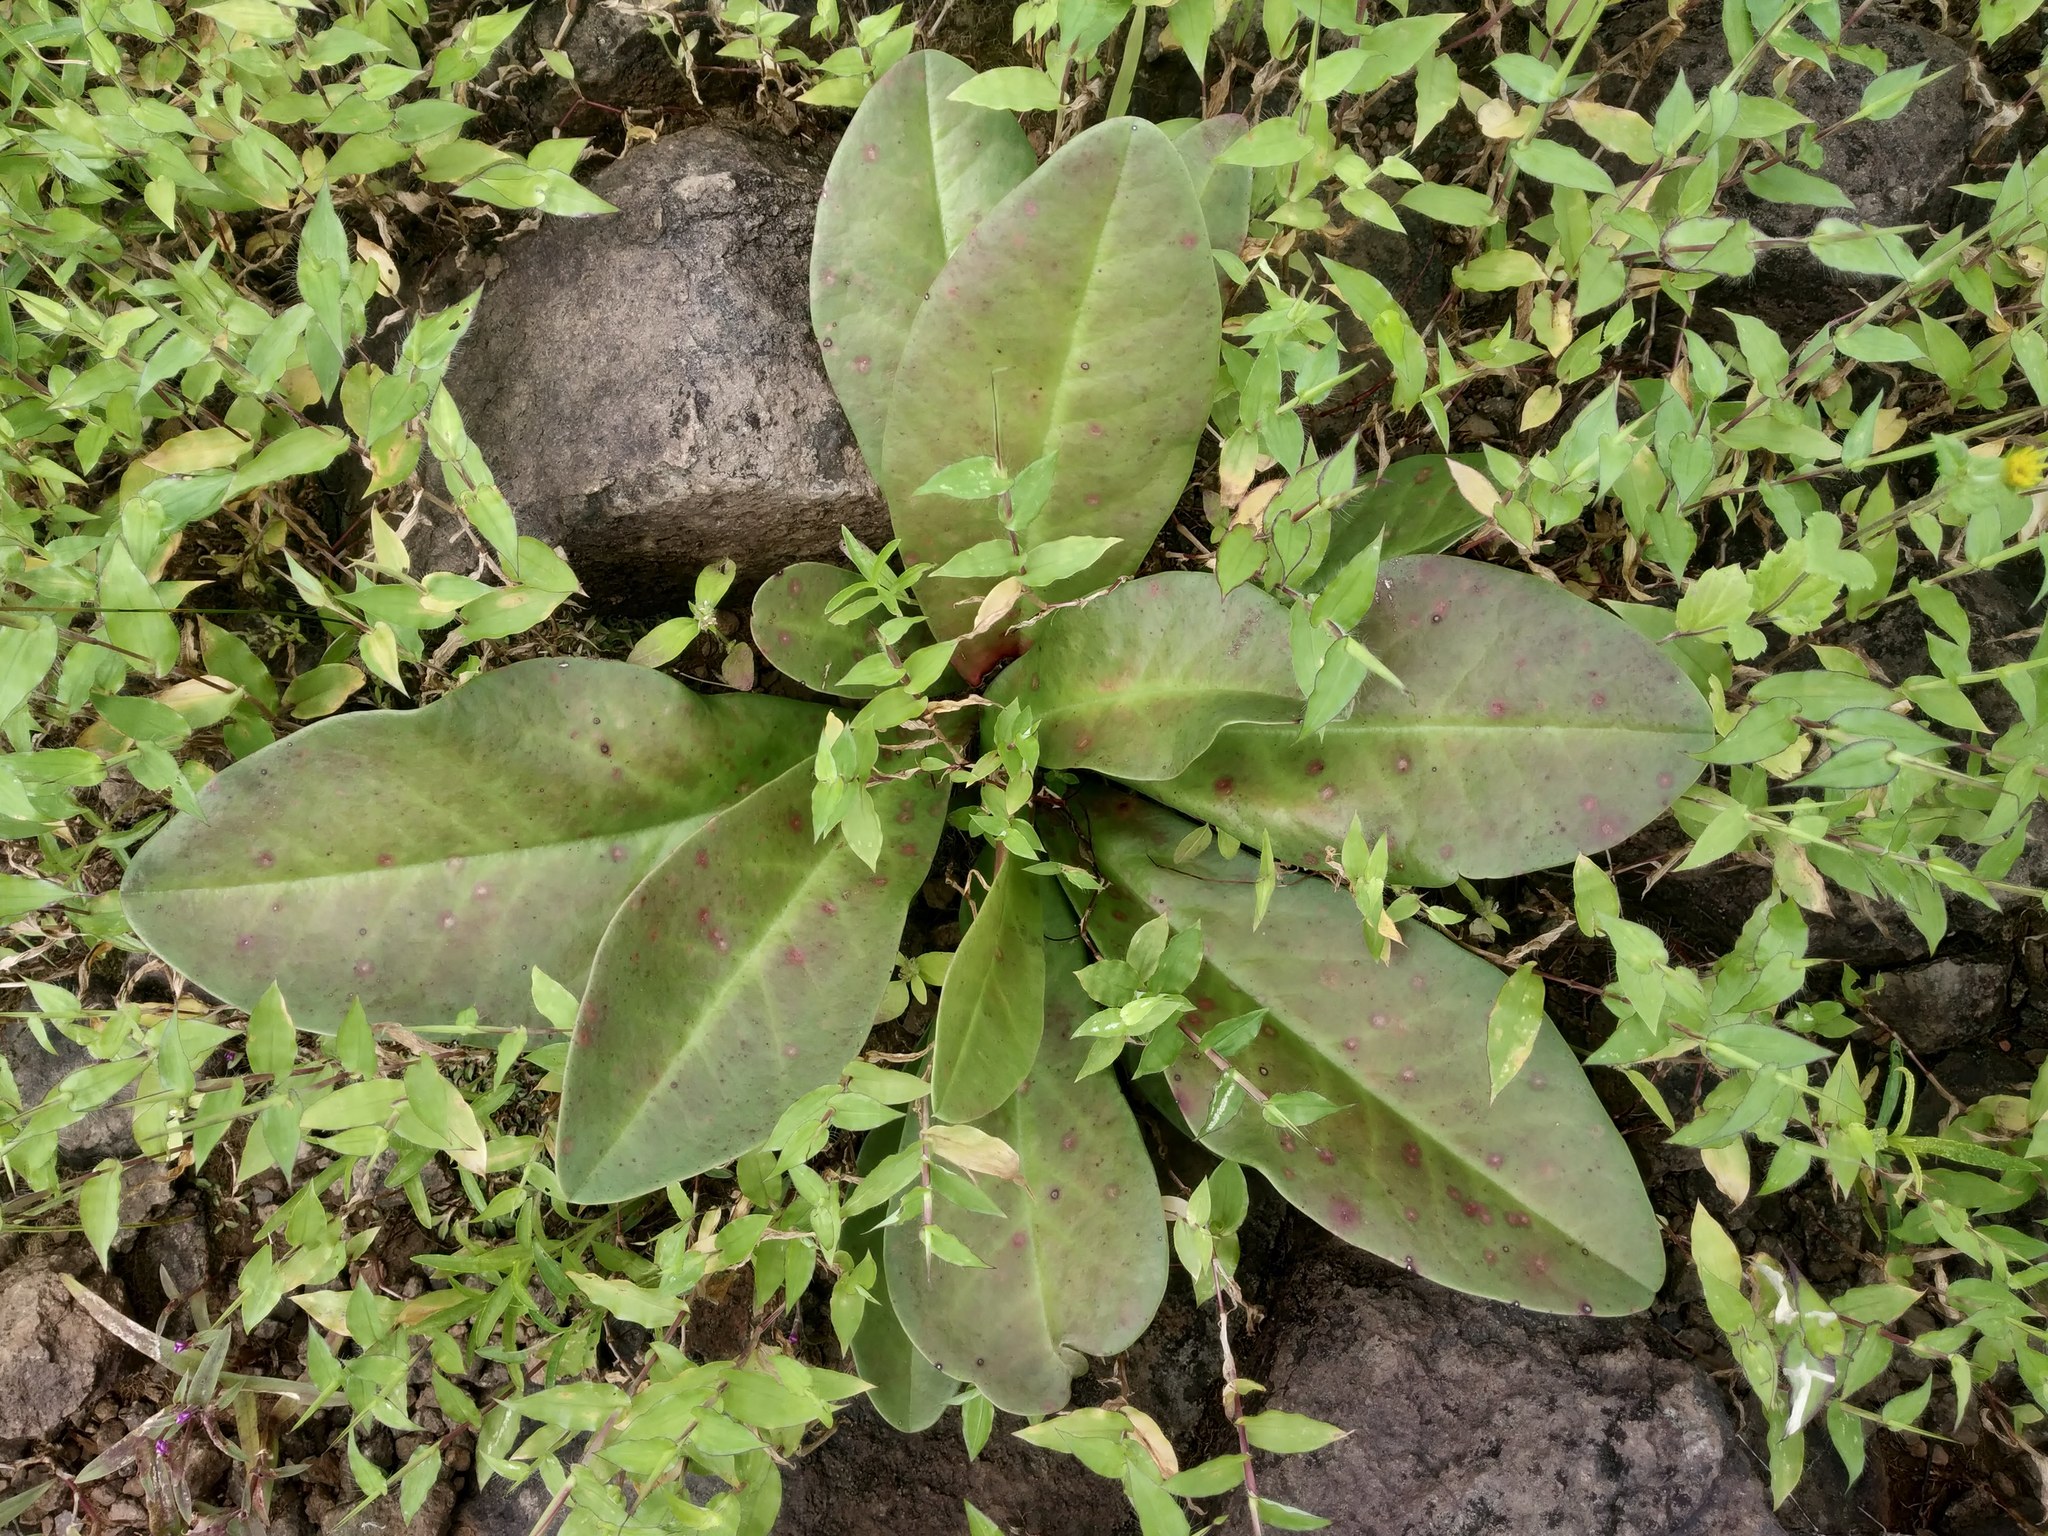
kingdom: Plantae
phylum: Tracheophyta
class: Magnoliopsida
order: Malpighiales
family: Euphorbiaceae
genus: Euphorbia
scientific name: Euphorbia fusiformis
